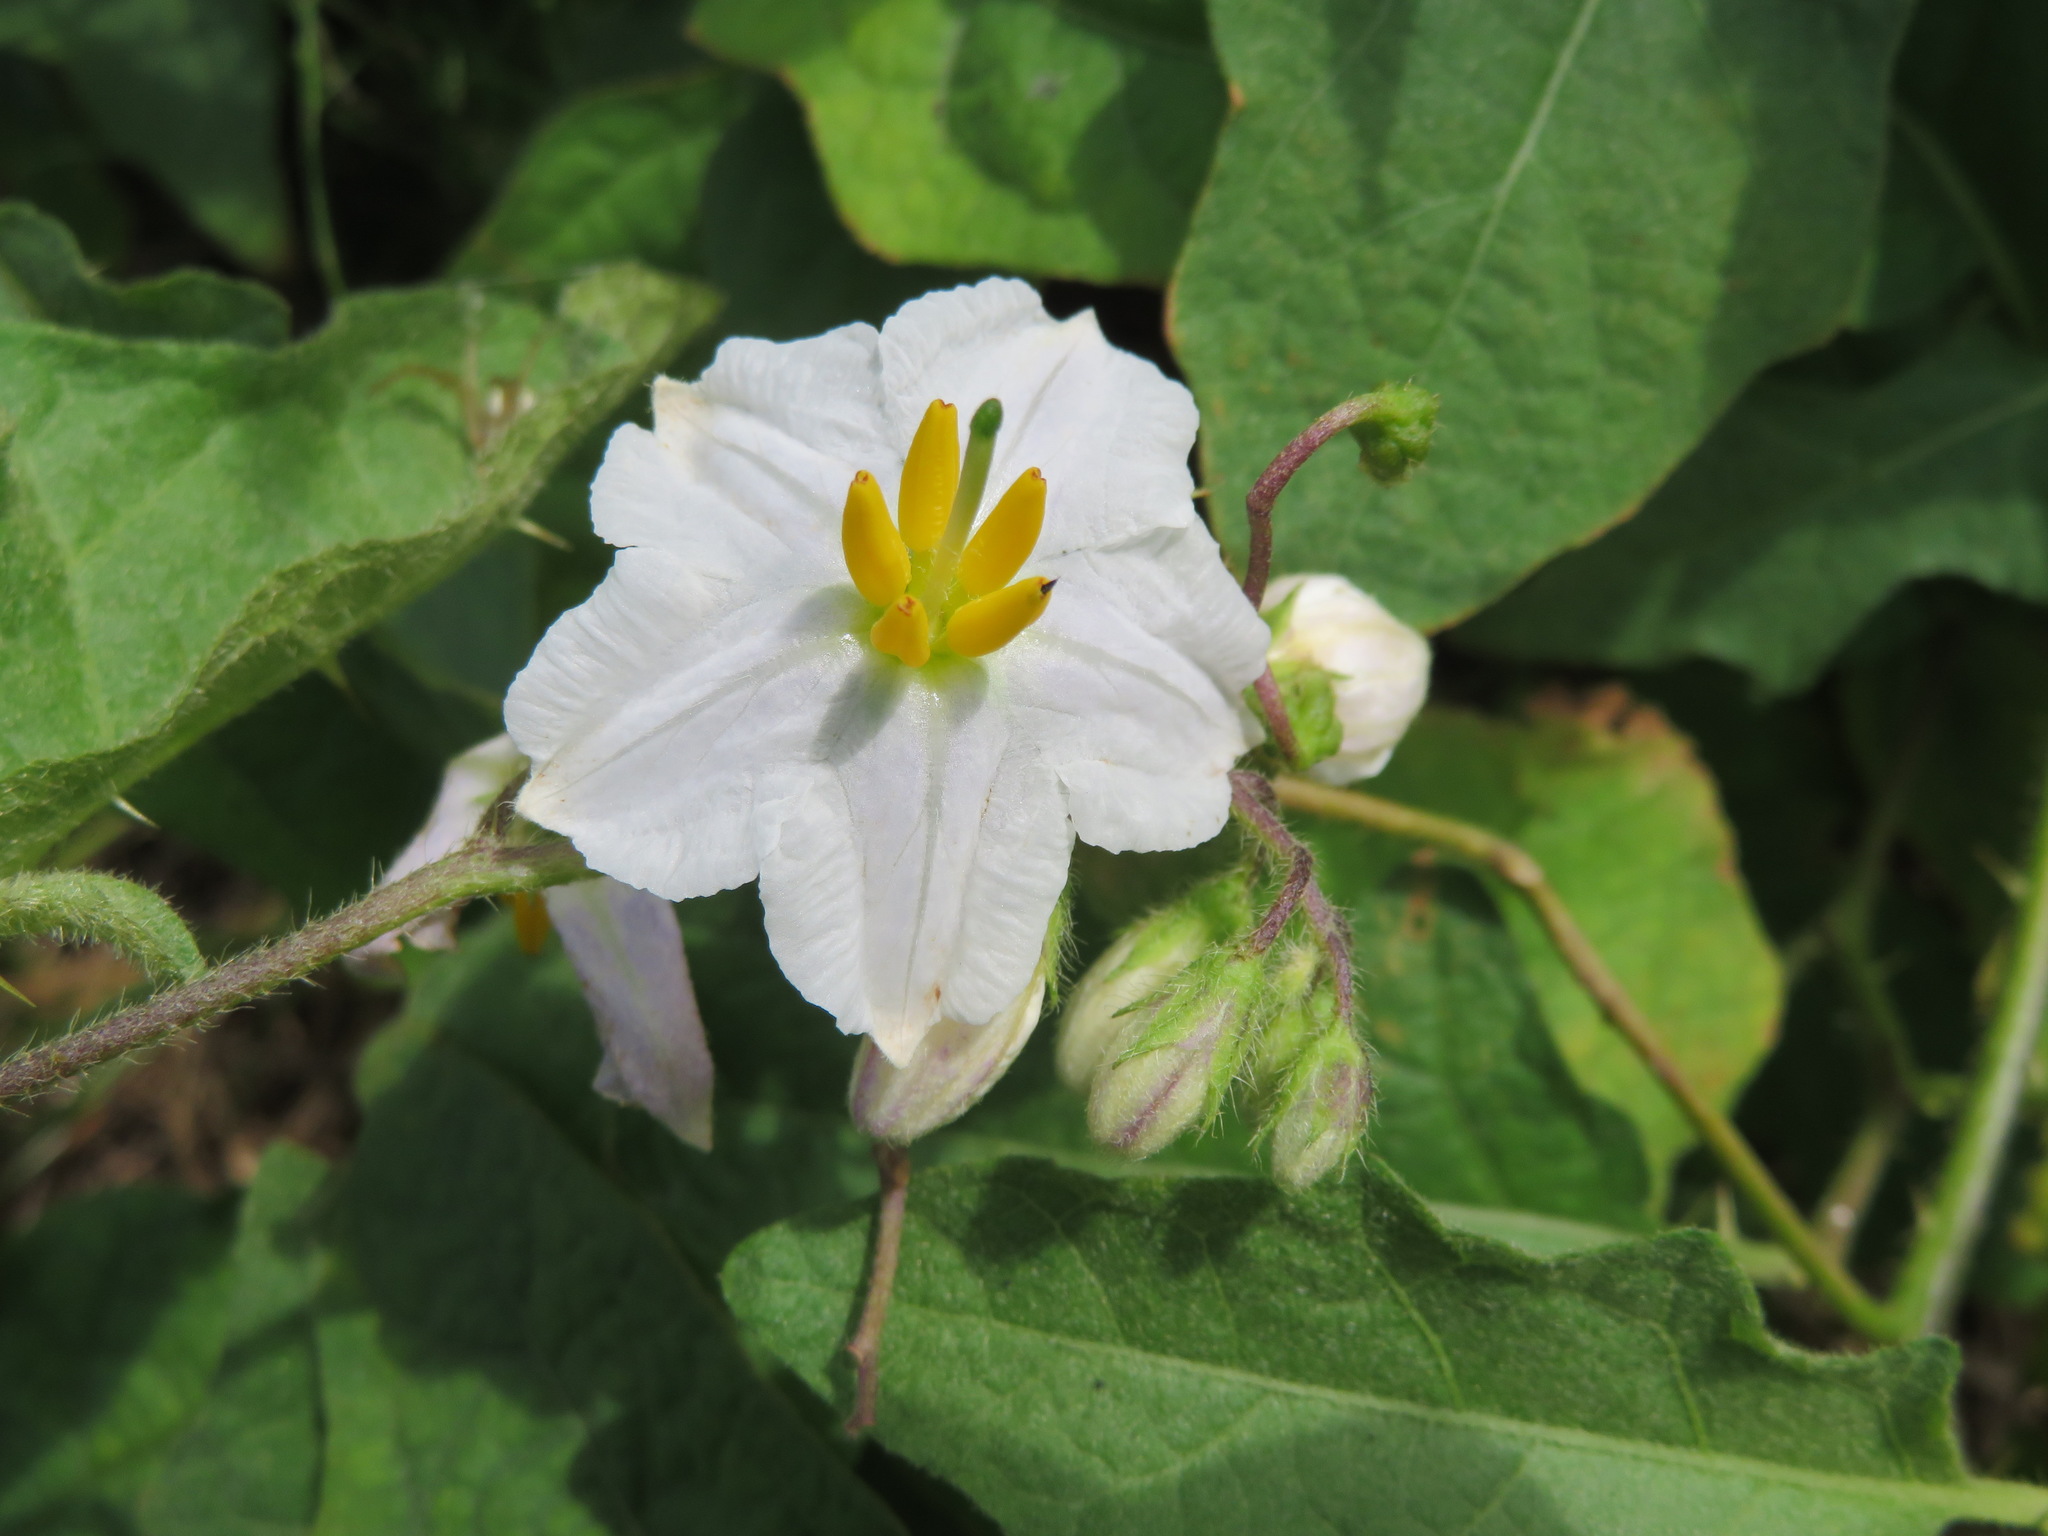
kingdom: Plantae
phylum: Tracheophyta
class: Magnoliopsida
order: Solanales
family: Solanaceae
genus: Solanum
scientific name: Solanum carolinense
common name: Horse-nettle
